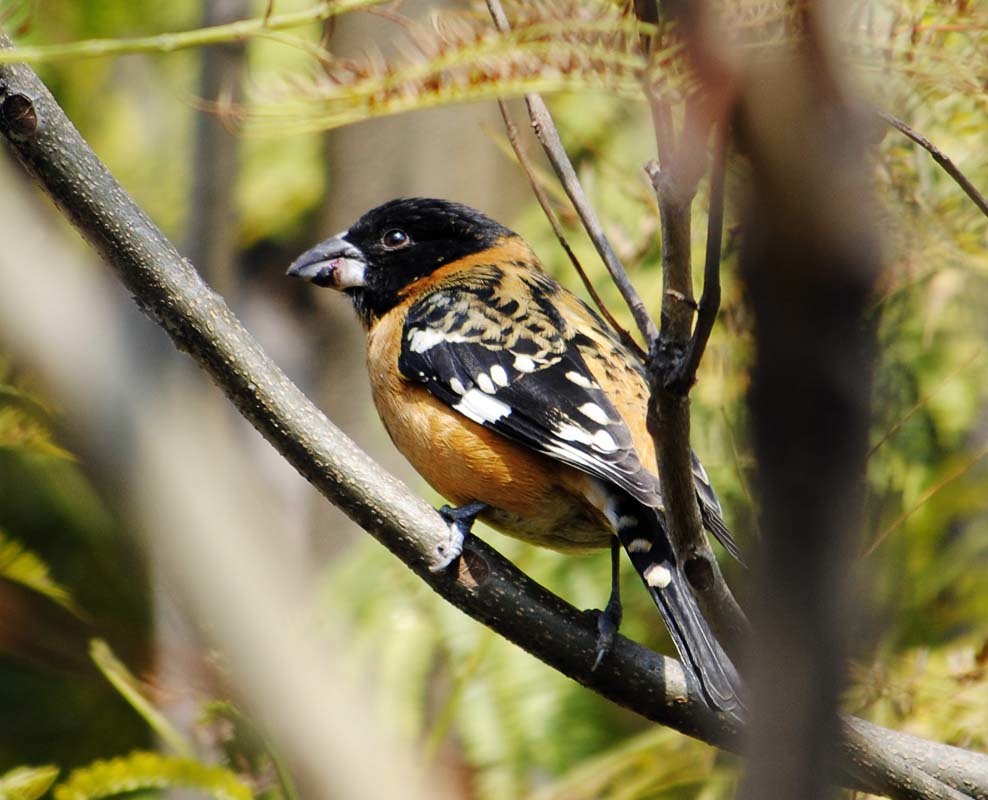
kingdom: Animalia
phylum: Chordata
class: Aves
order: Passeriformes
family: Cardinalidae
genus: Pheucticus
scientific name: Pheucticus melanocephalus
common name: Black-headed grosbeak
